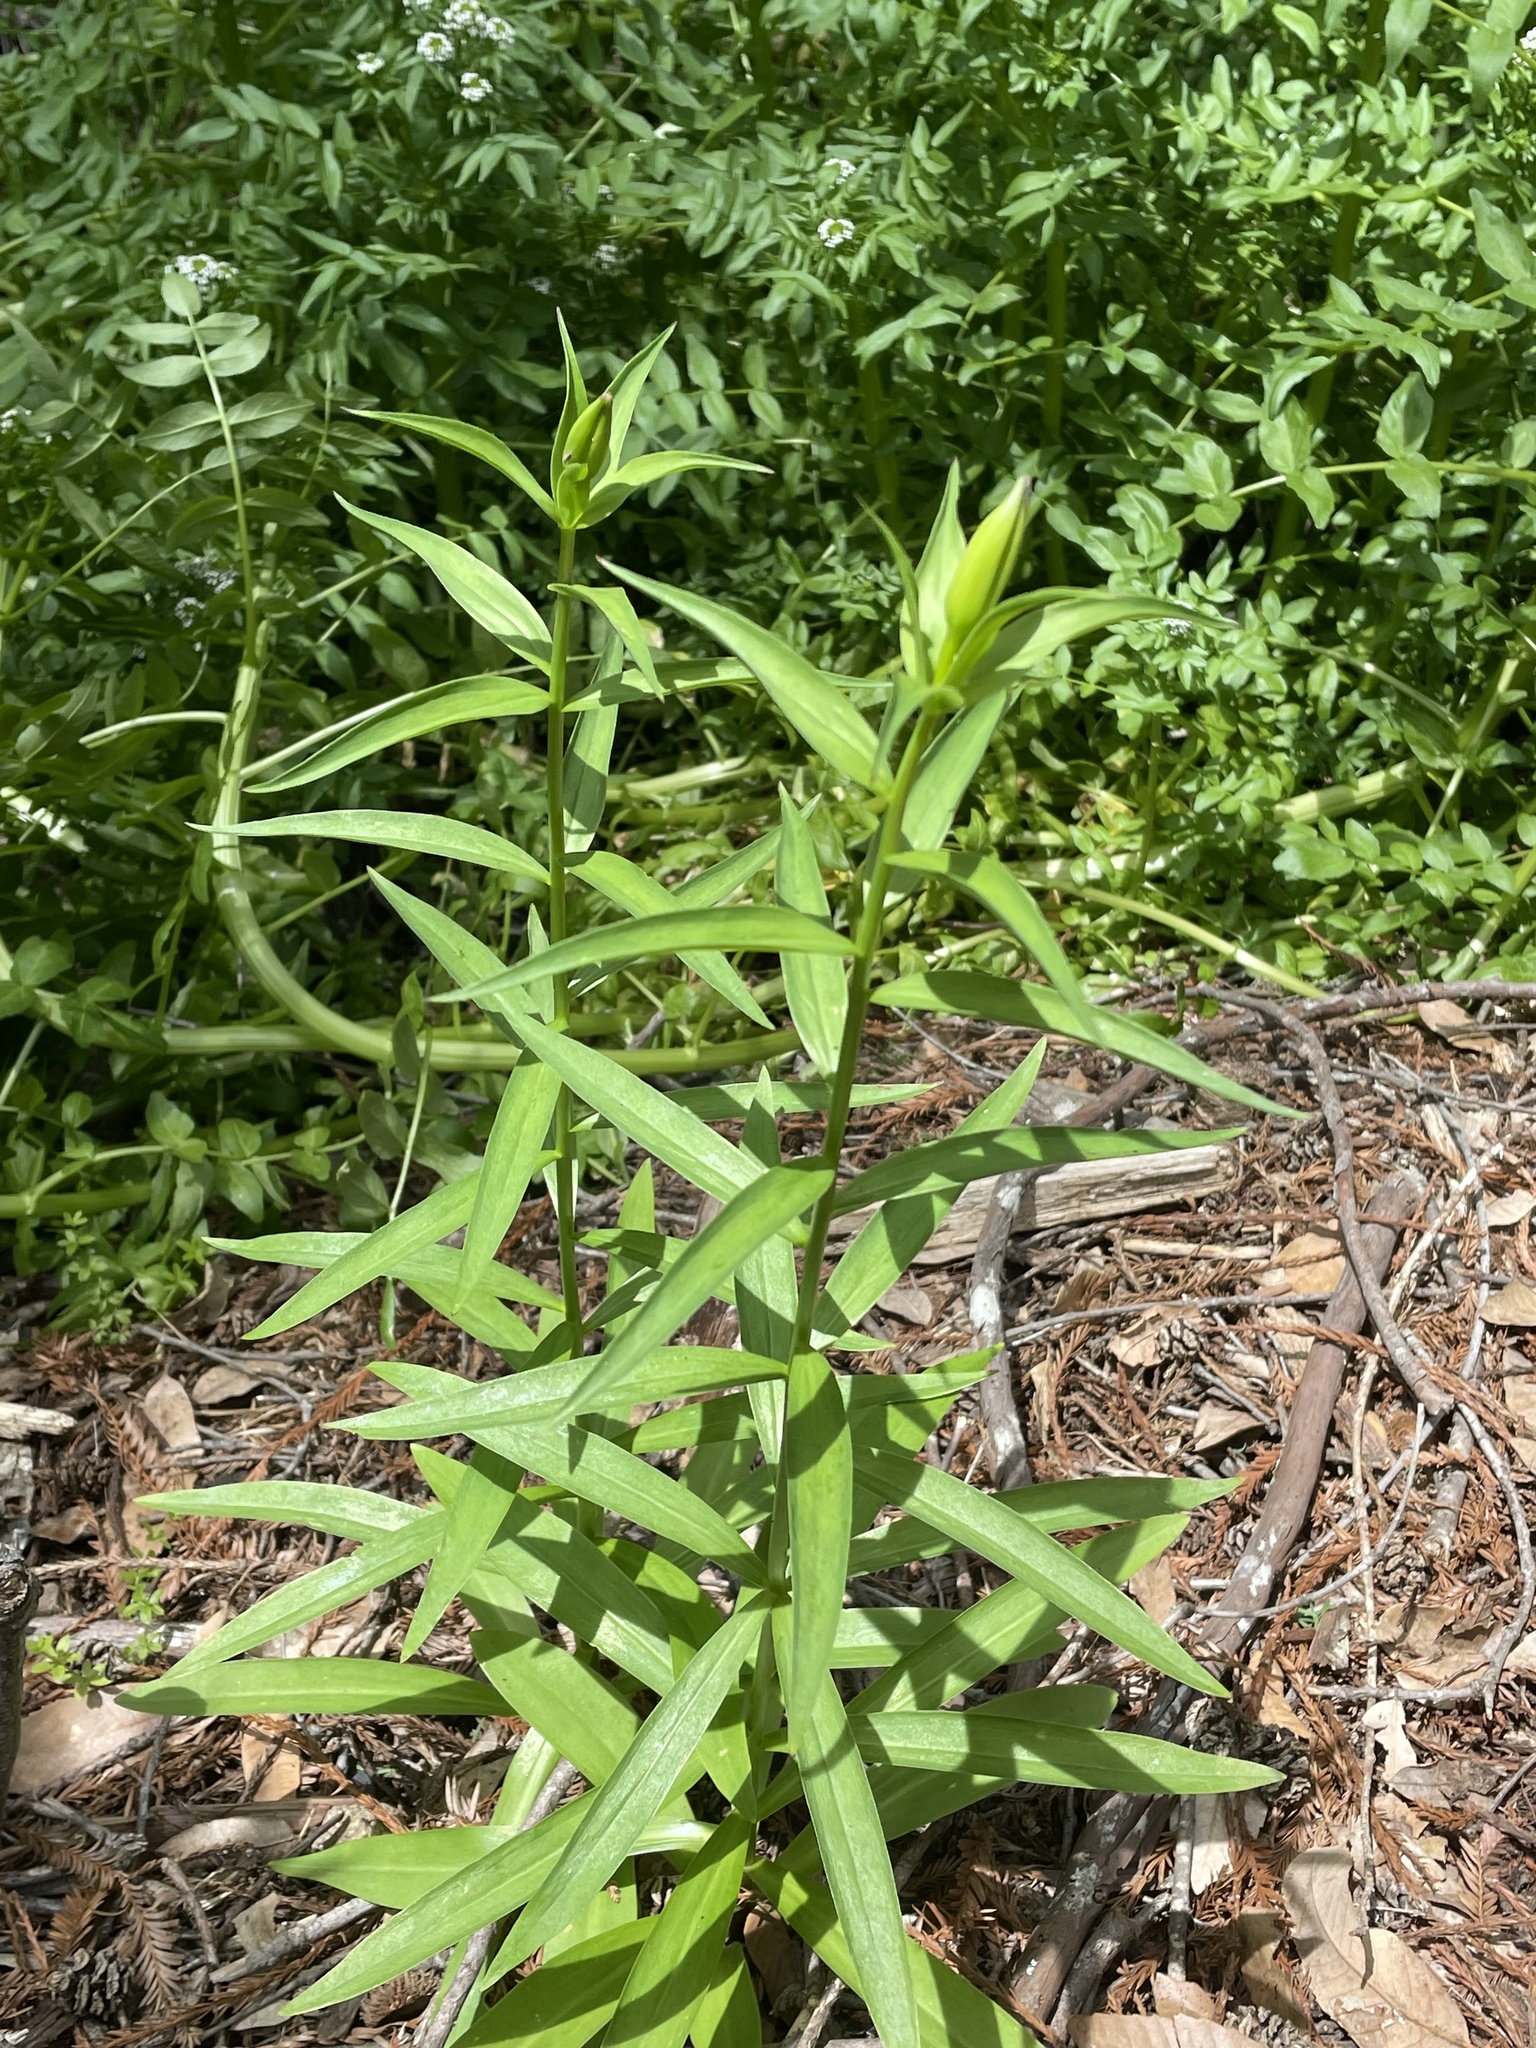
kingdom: Plantae
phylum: Tracheophyta
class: Liliopsida
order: Liliales
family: Liliaceae
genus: Lilium
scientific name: Lilium pardalinum
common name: Panther lily
